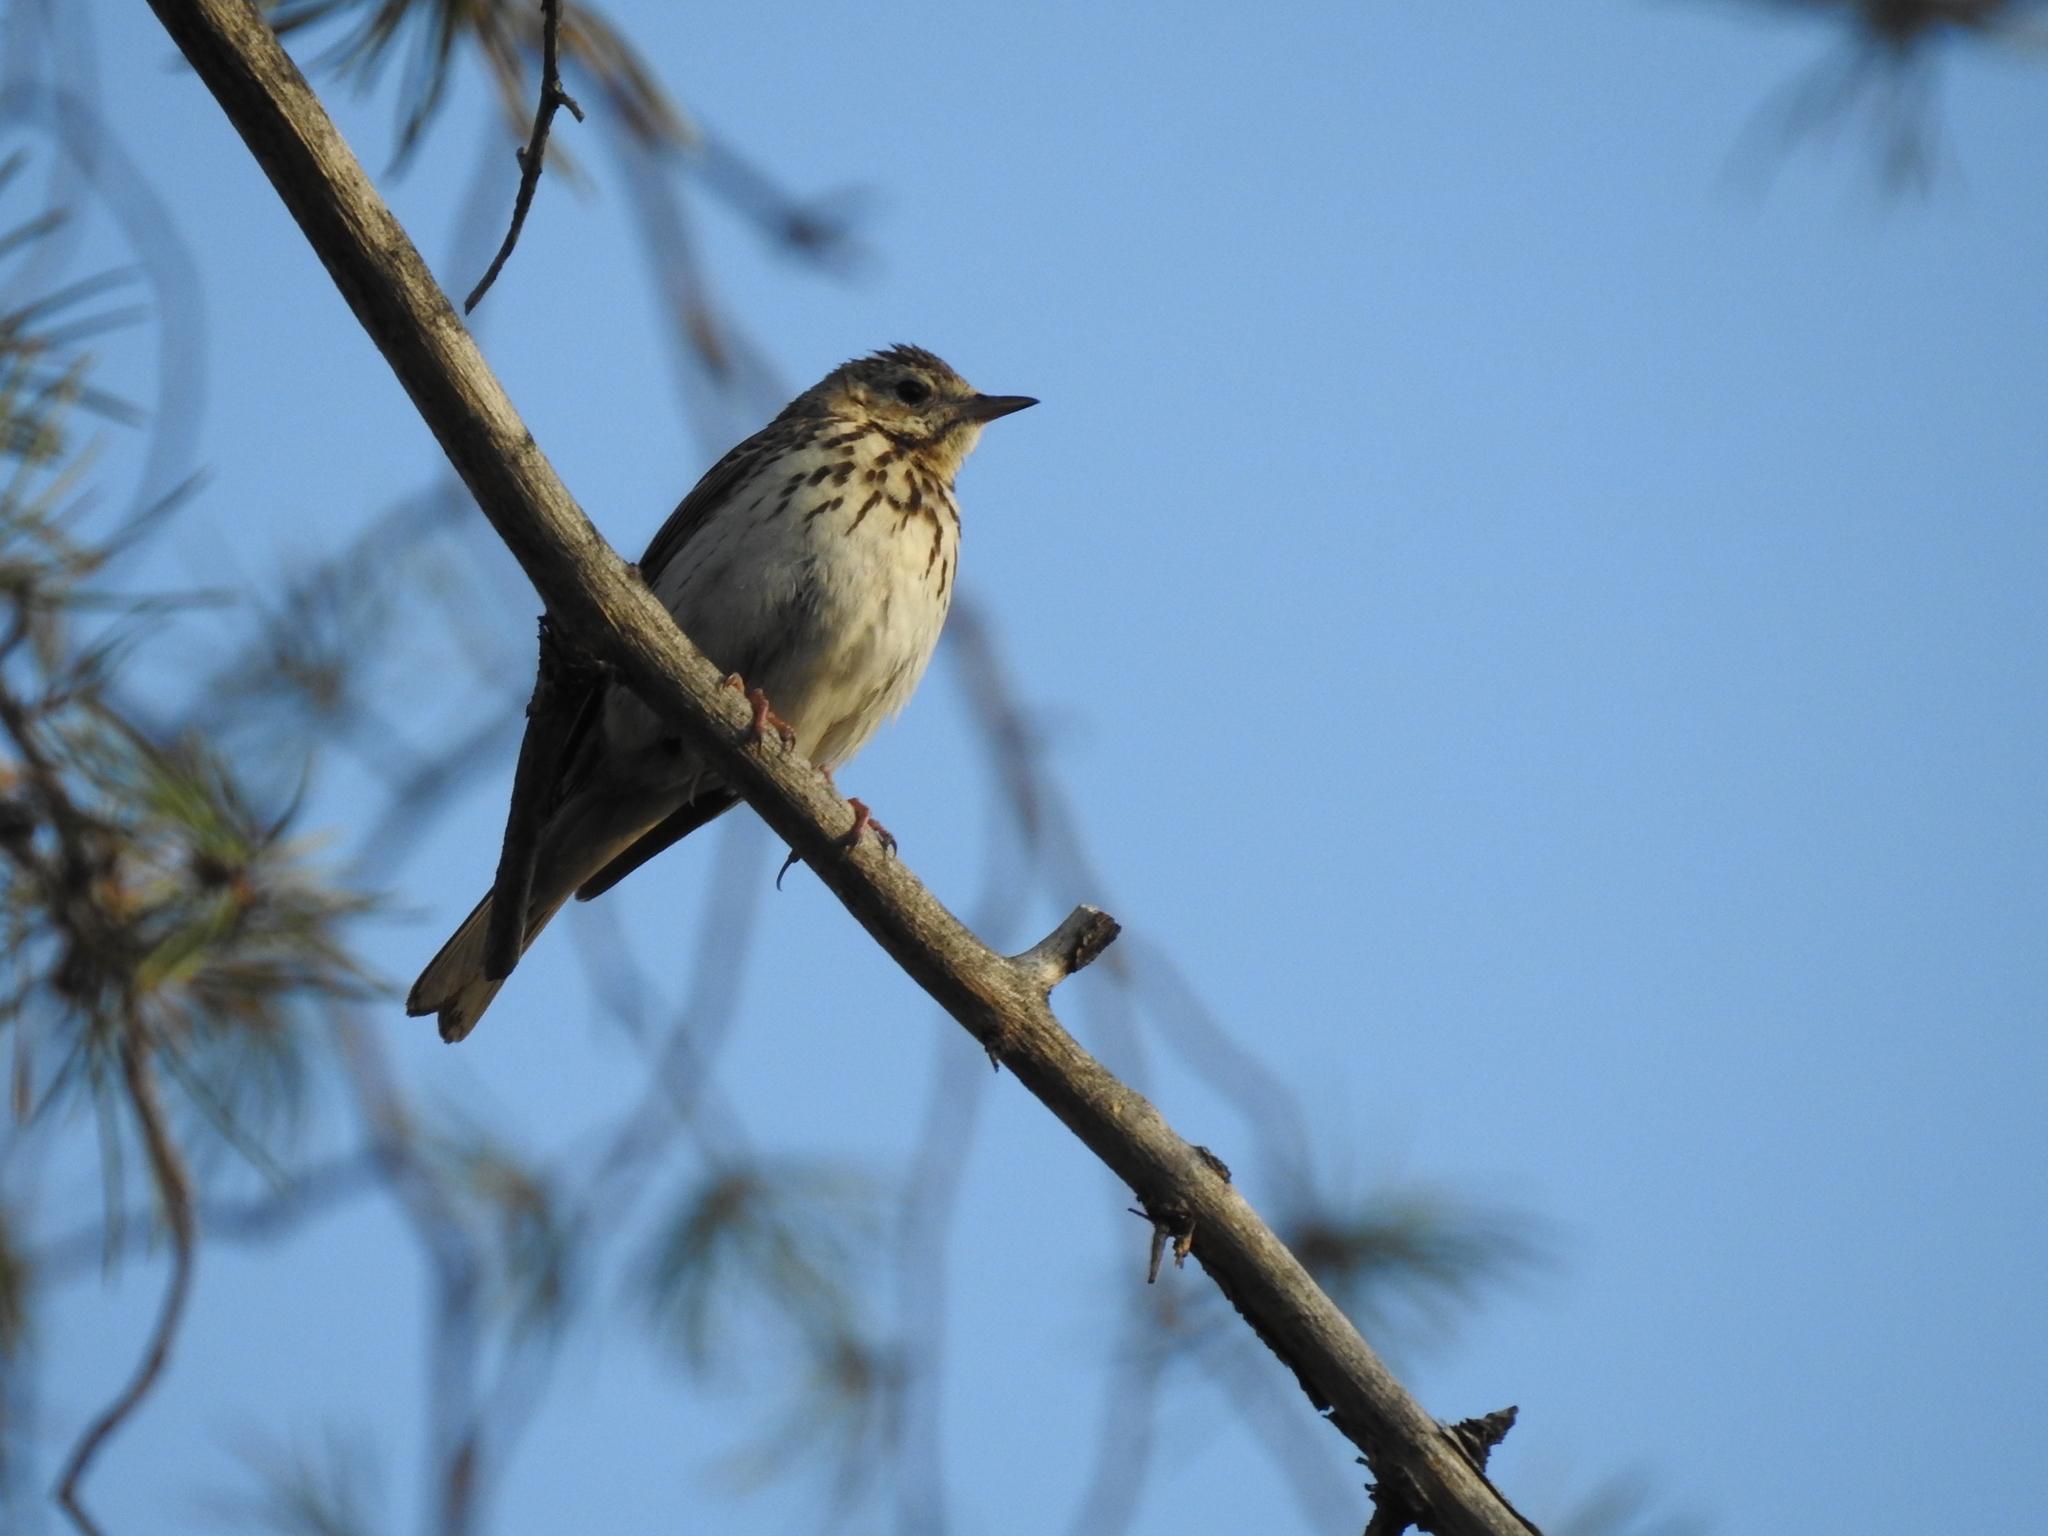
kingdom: Animalia
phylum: Chordata
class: Aves
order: Passeriformes
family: Motacillidae
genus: Anthus
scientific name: Anthus trivialis
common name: Tree pipit
